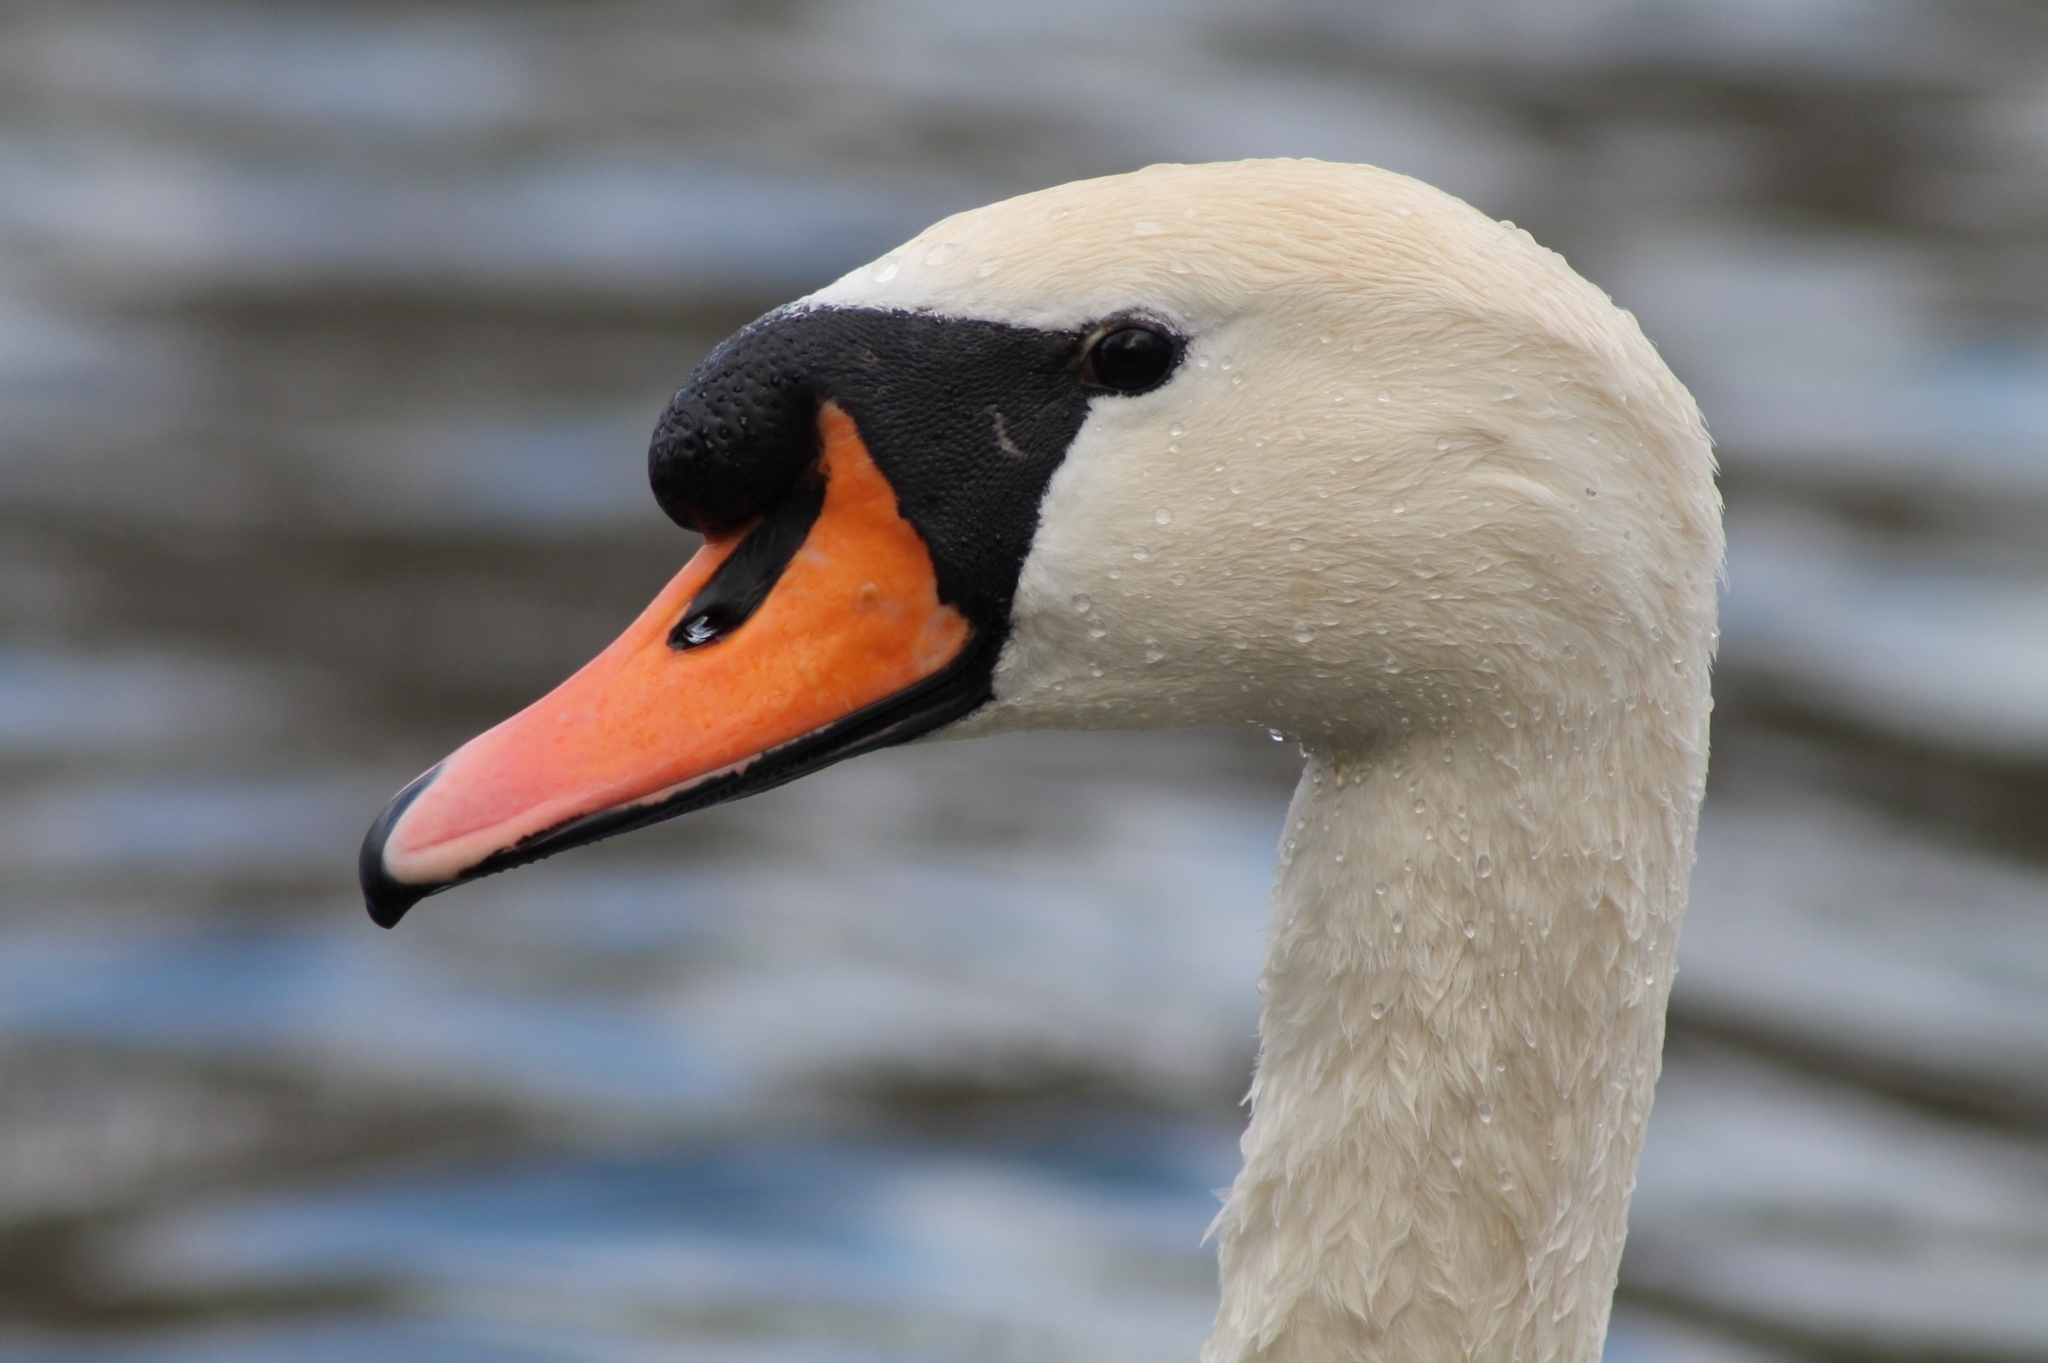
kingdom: Animalia
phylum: Chordata
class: Aves
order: Anseriformes
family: Anatidae
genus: Cygnus
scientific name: Cygnus olor
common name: Mute swan
